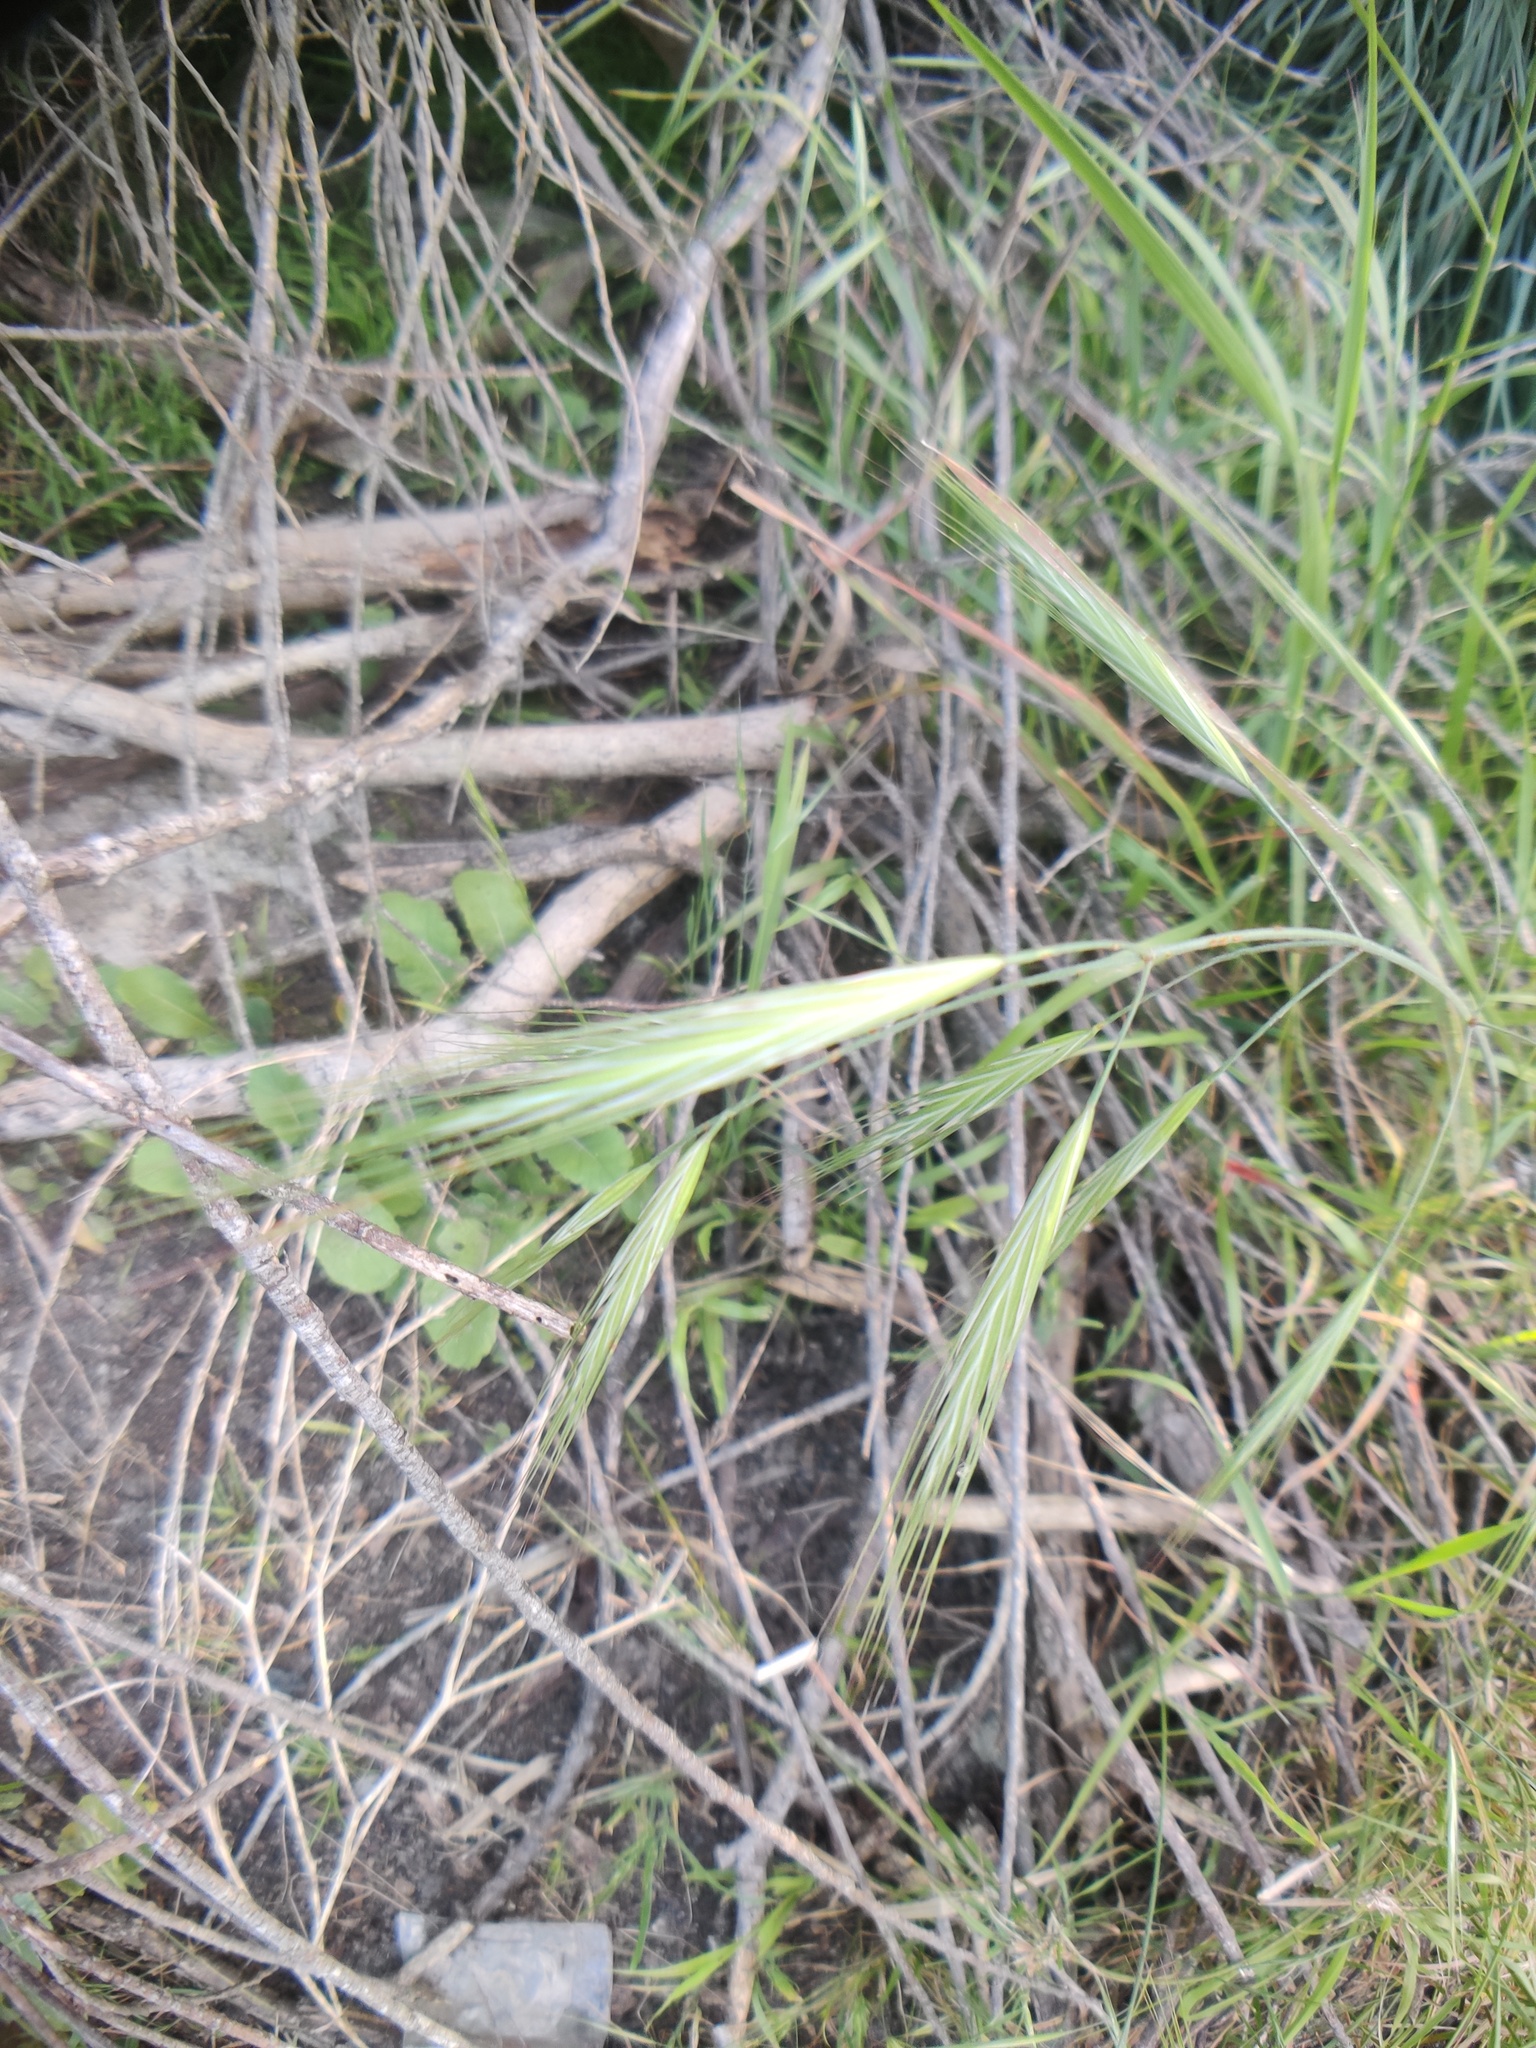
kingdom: Plantae
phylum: Tracheophyta
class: Liliopsida
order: Poales
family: Poaceae
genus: Bromus
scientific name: Bromus diandrus
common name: Ripgut brome
